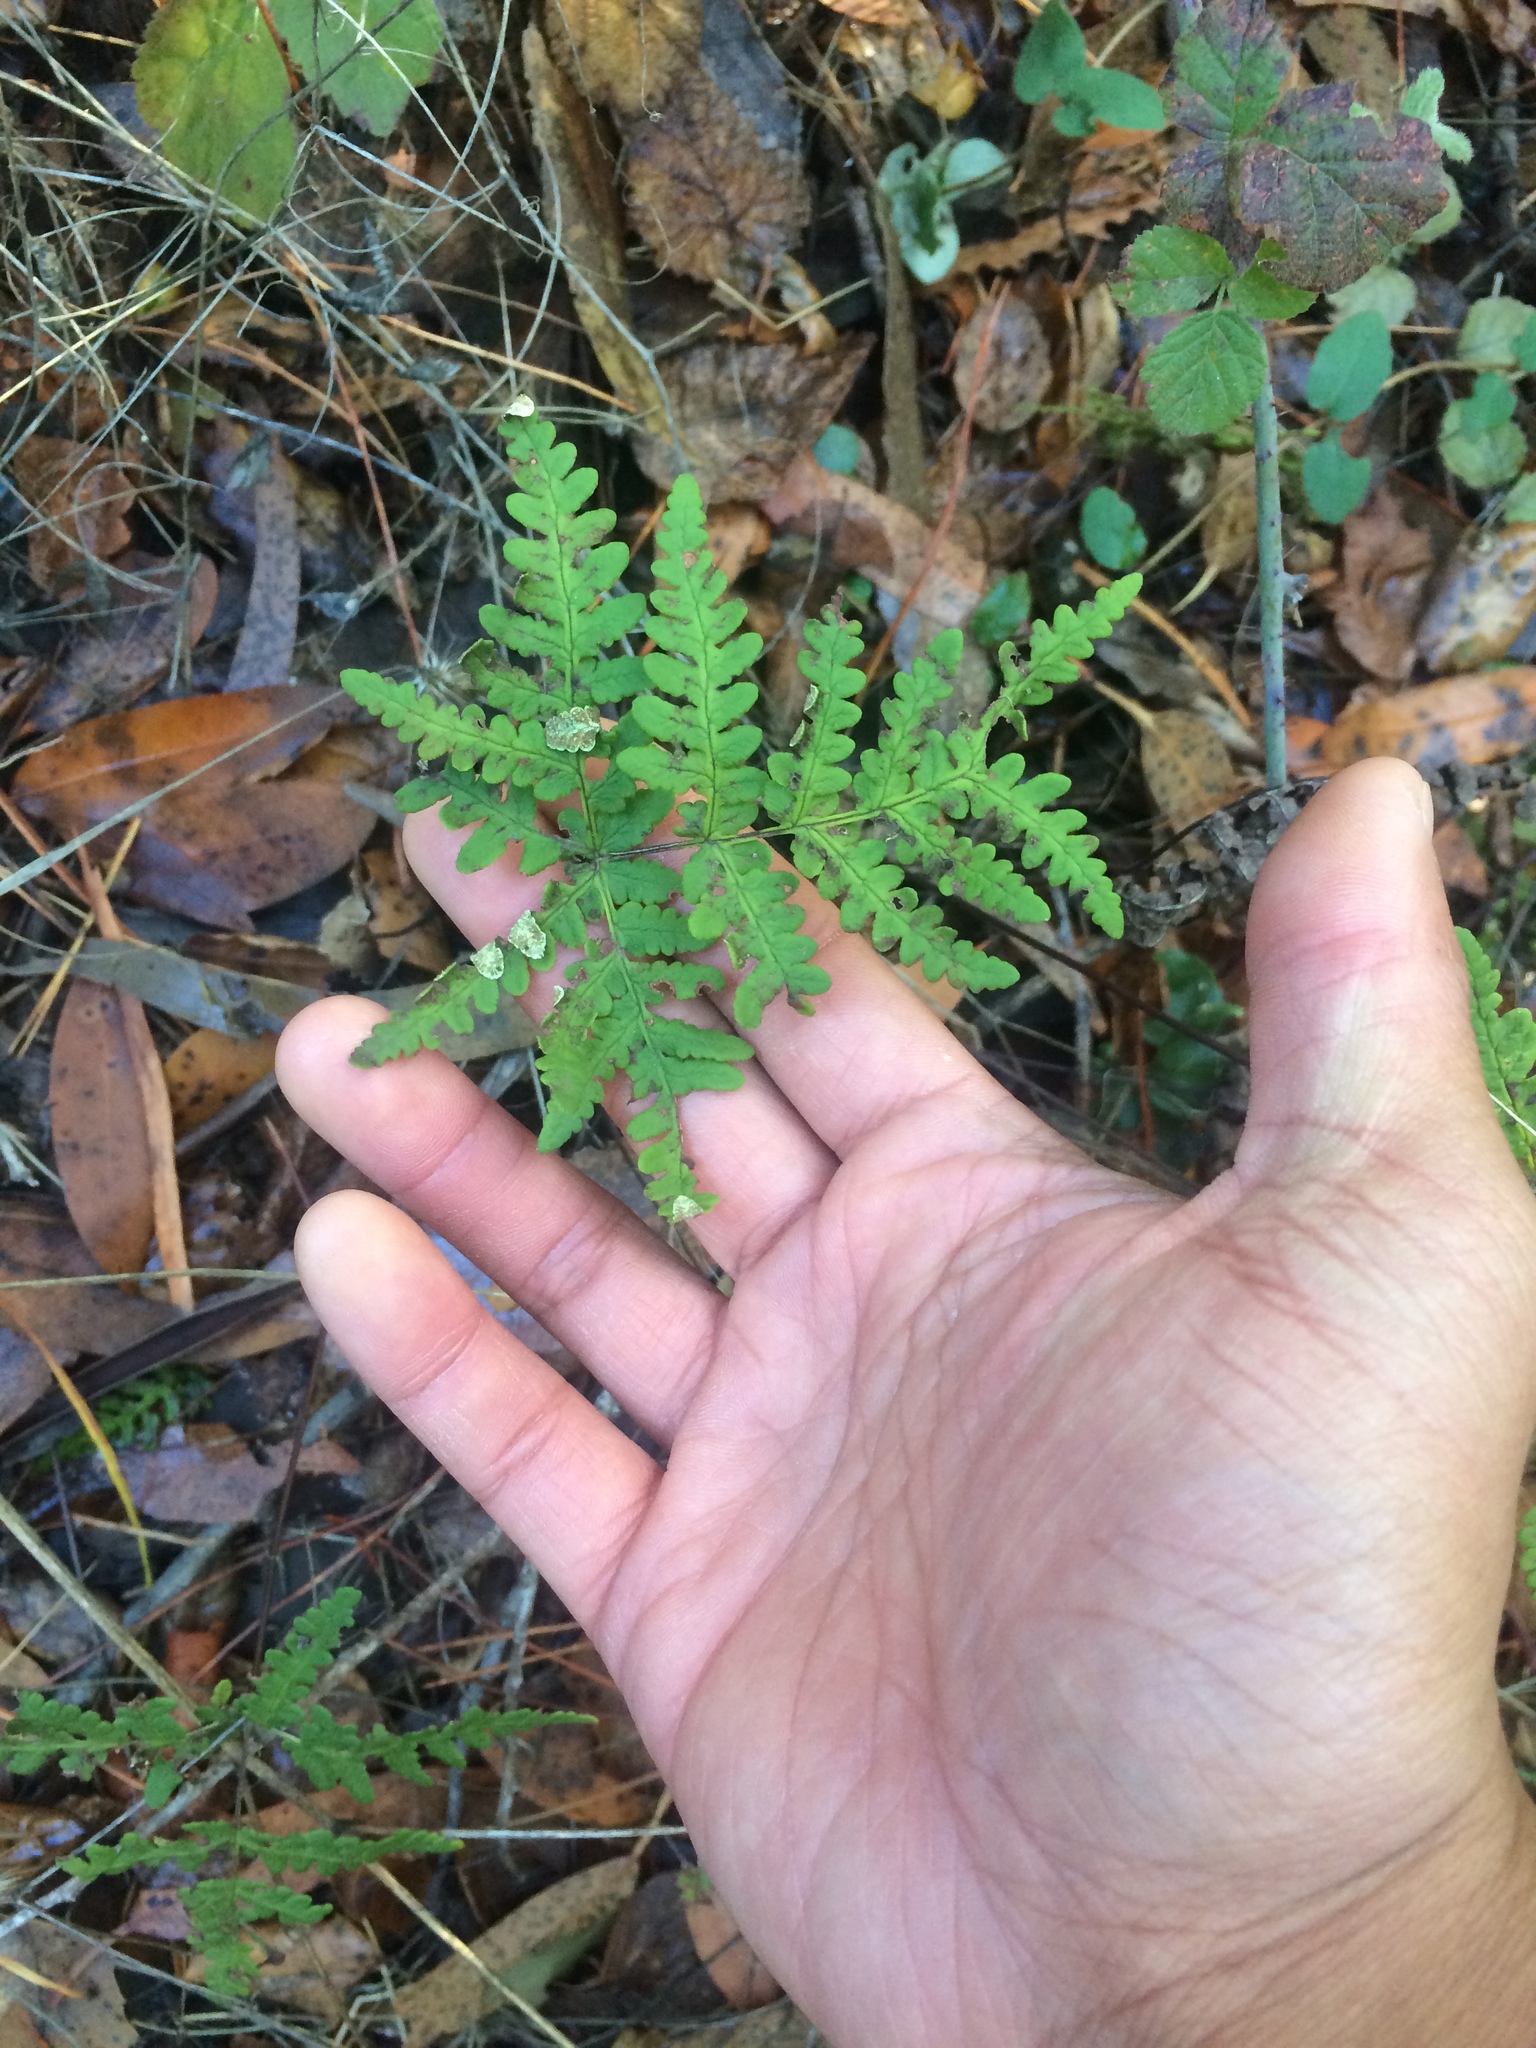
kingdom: Plantae
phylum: Tracheophyta
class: Polypodiopsida
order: Polypodiales
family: Pteridaceae
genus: Pentagramma
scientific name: Pentagramma triangularis
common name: Gold fern
